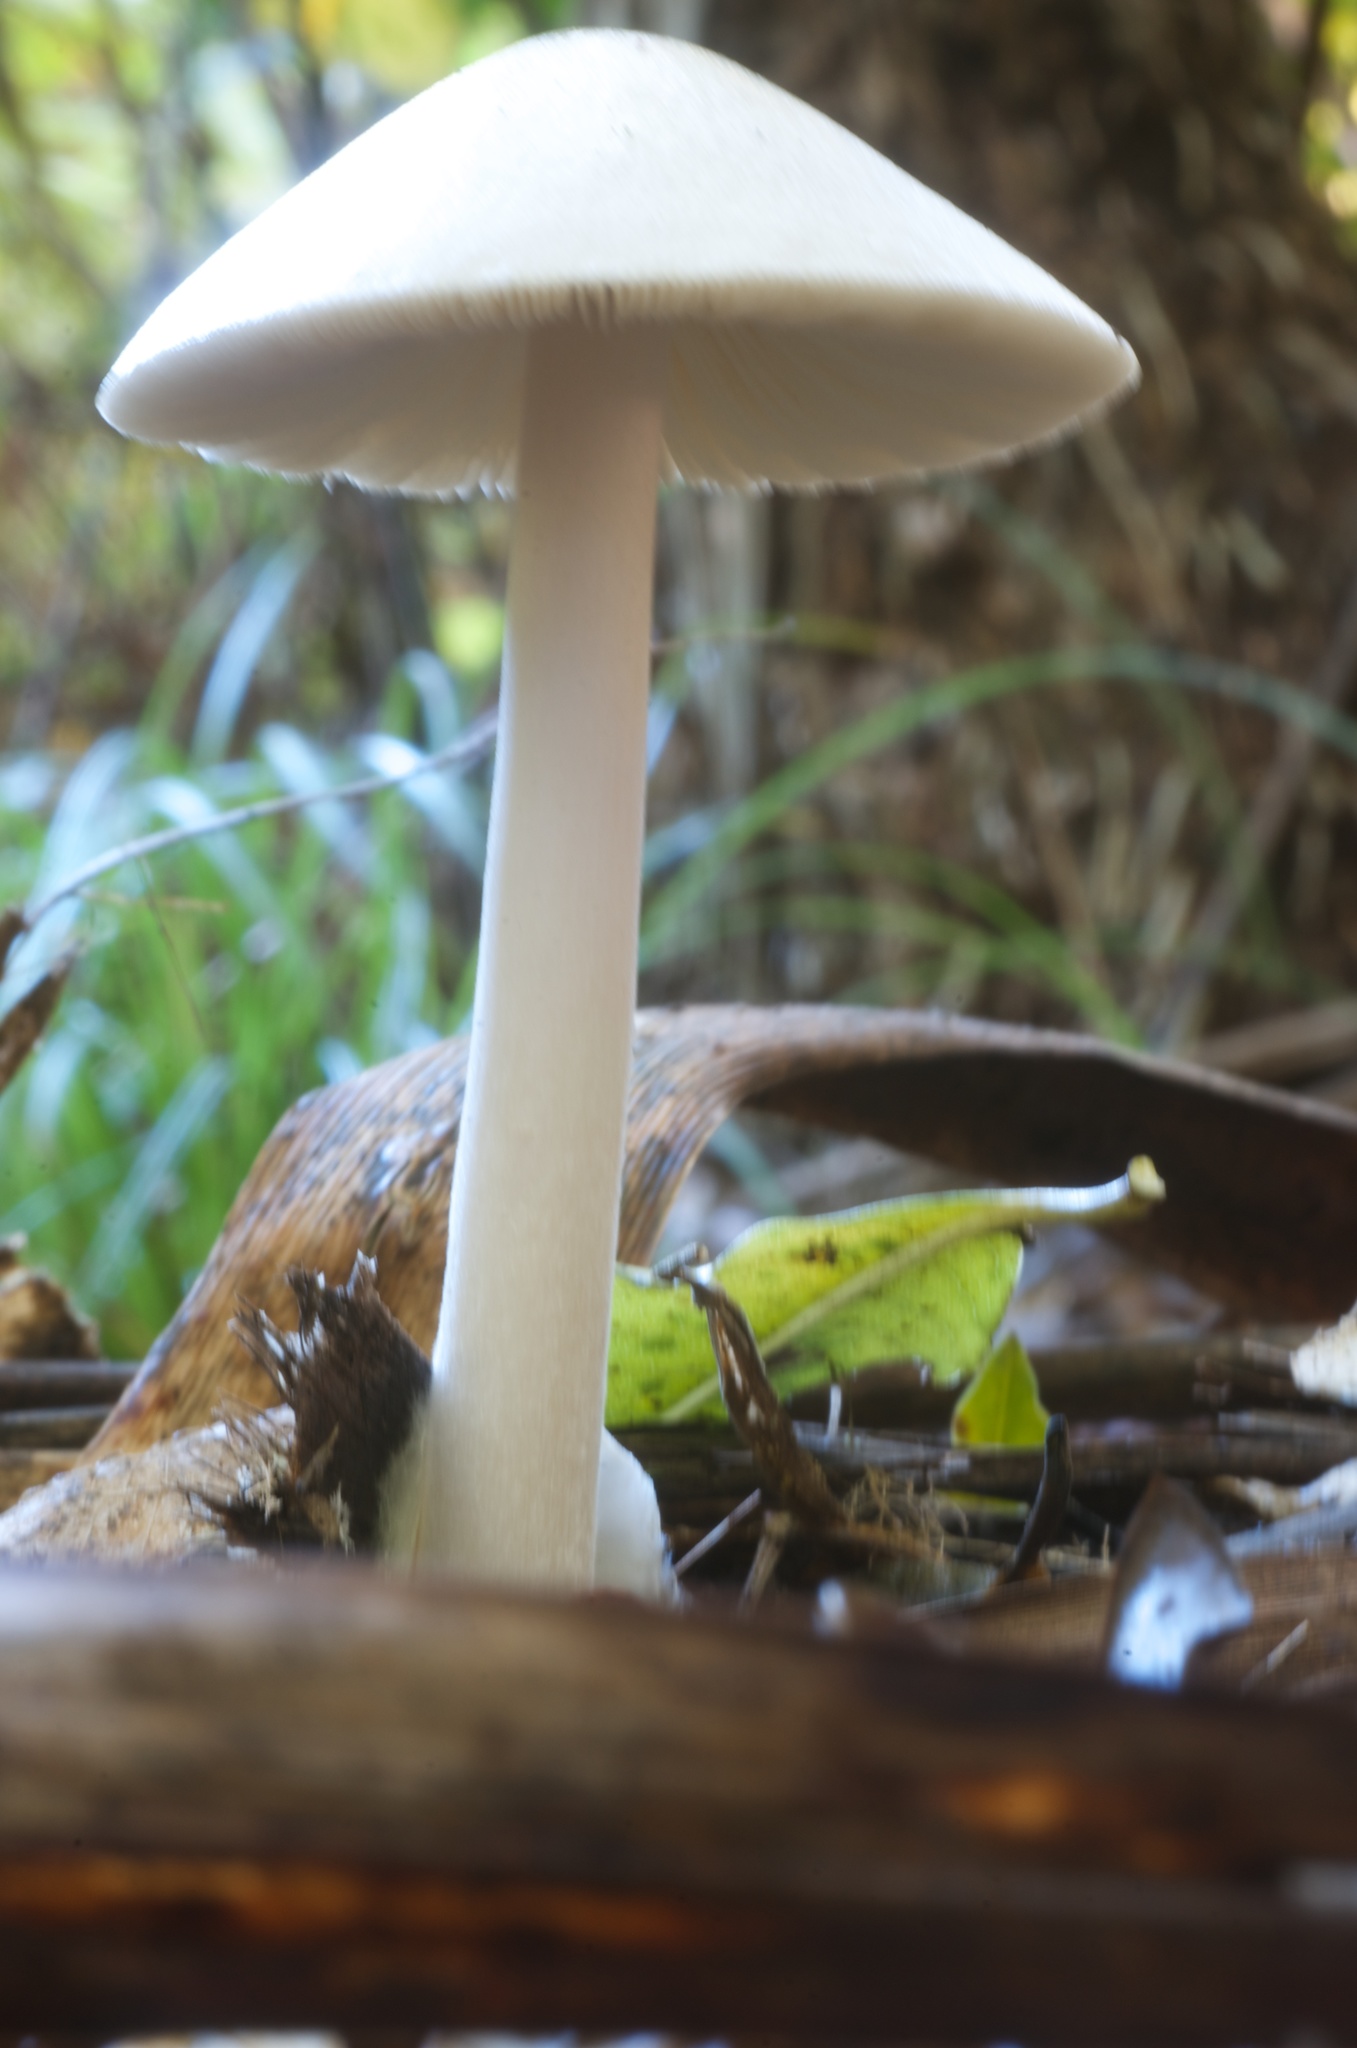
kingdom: Fungi
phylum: Basidiomycota
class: Agaricomycetes
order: Agaricales
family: Pluteaceae
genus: Volvopluteus
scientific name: Volvopluteus gloiocephalus
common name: Stubble rosegill
